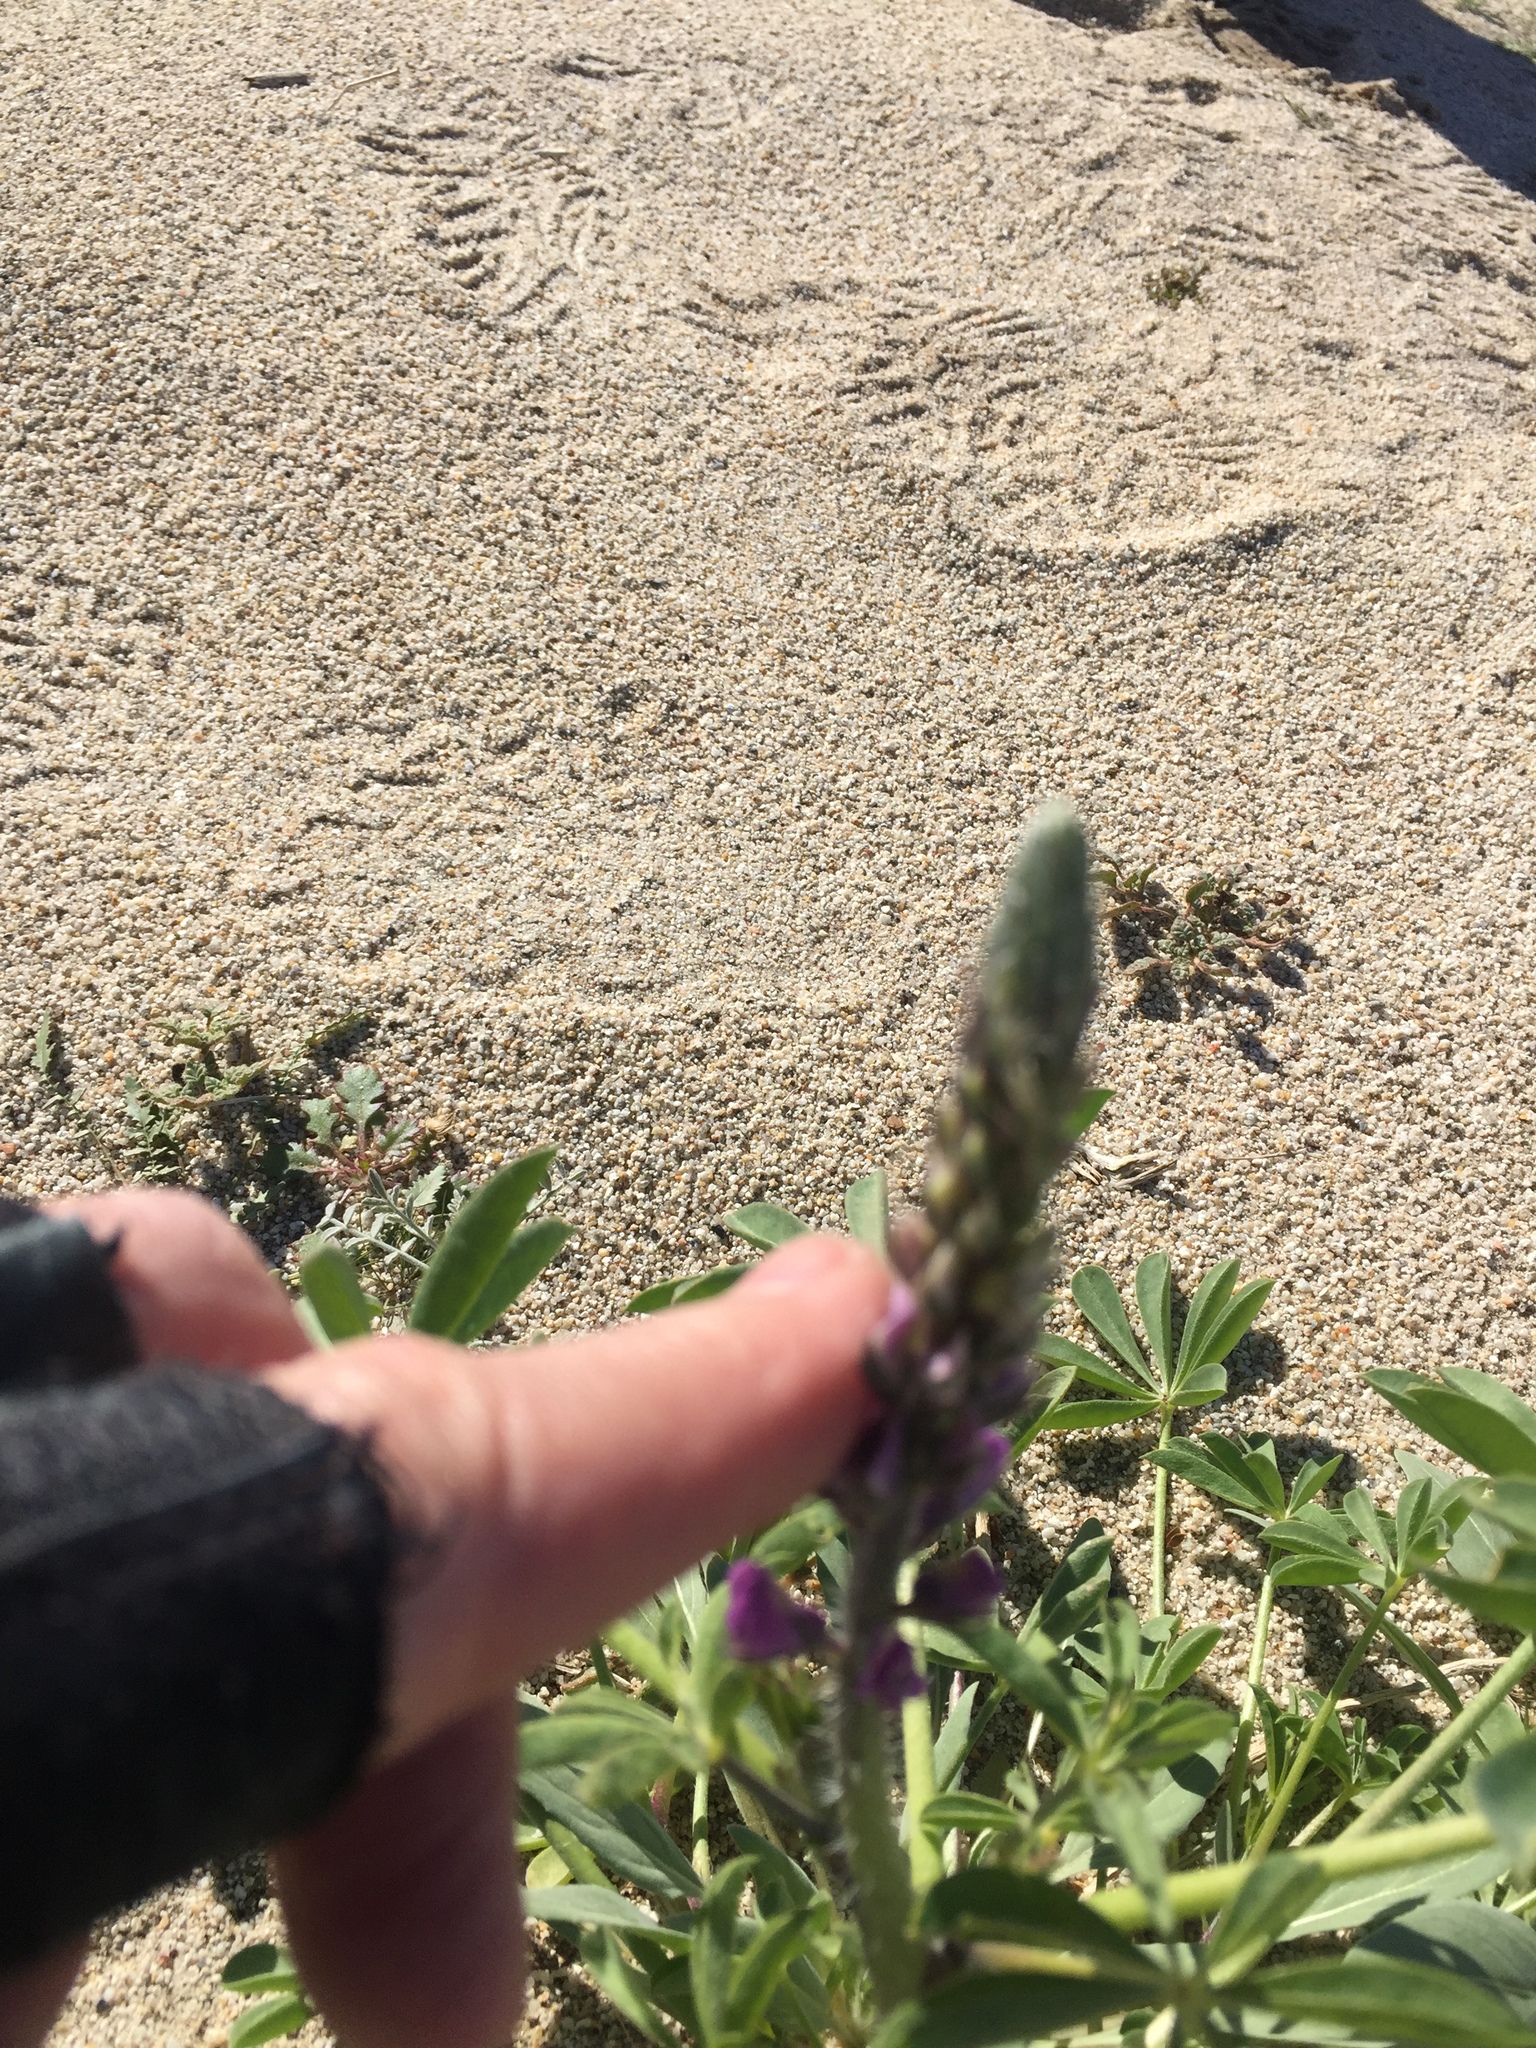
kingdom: Plantae
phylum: Tracheophyta
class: Magnoliopsida
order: Fabales
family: Fabaceae
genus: Lupinus
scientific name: Lupinus arizonicus
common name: Arizona lupine
